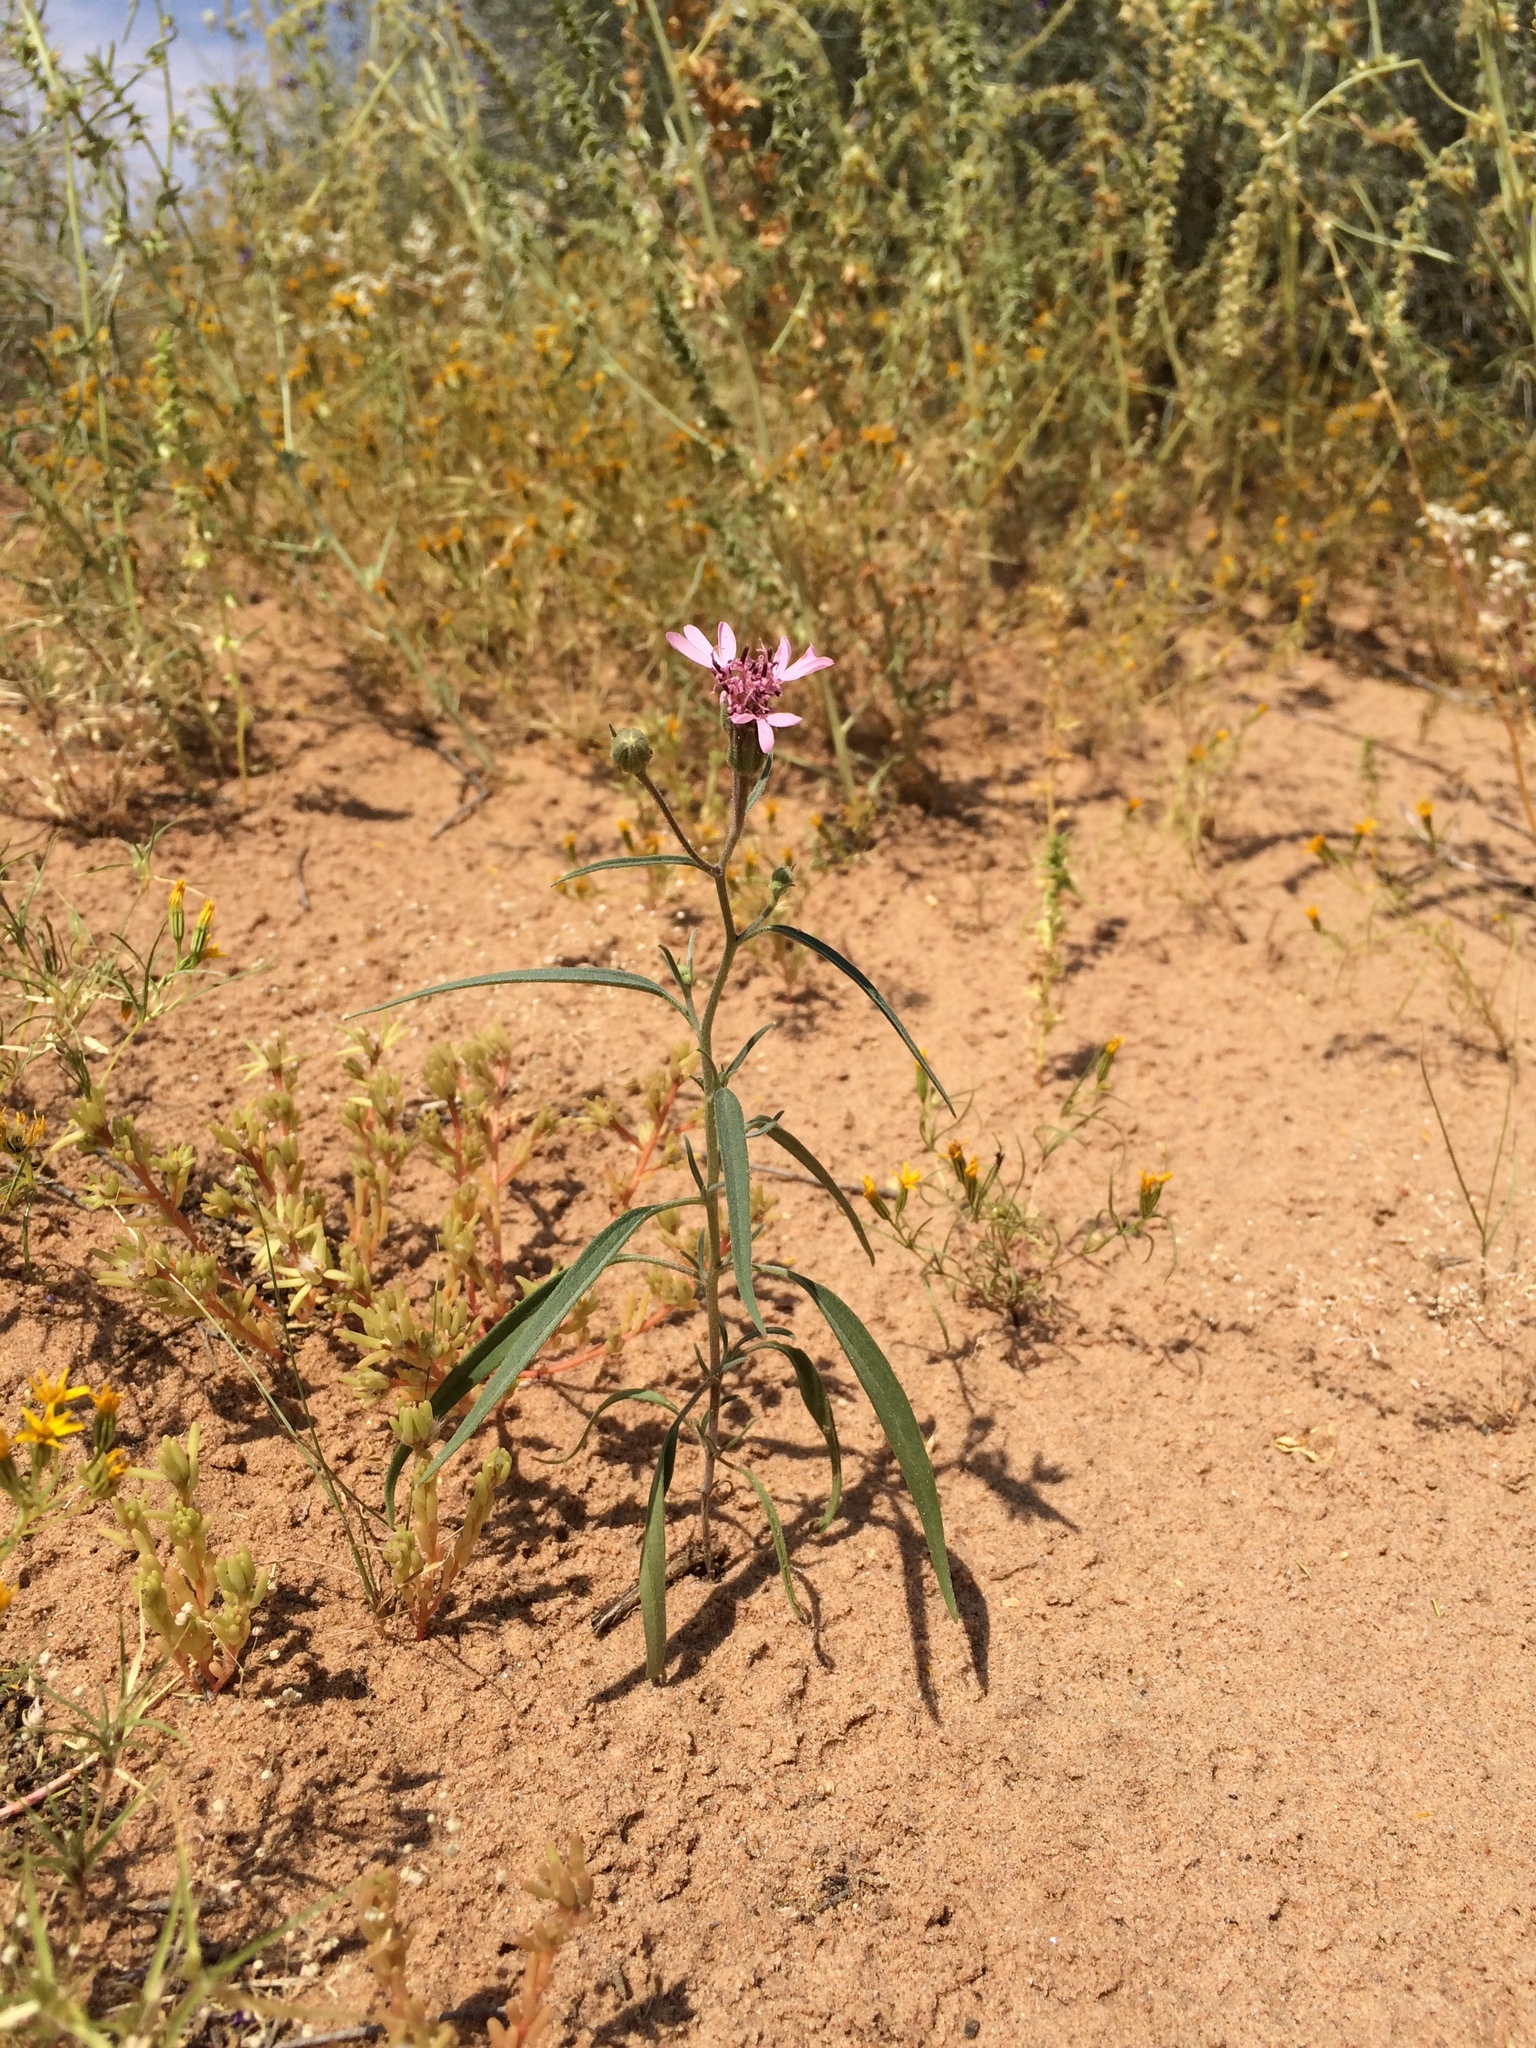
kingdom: Plantae
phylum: Tracheophyta
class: Magnoliopsida
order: Asterales
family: Asteraceae
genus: Palafoxia
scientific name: Palafoxia sphacelata
